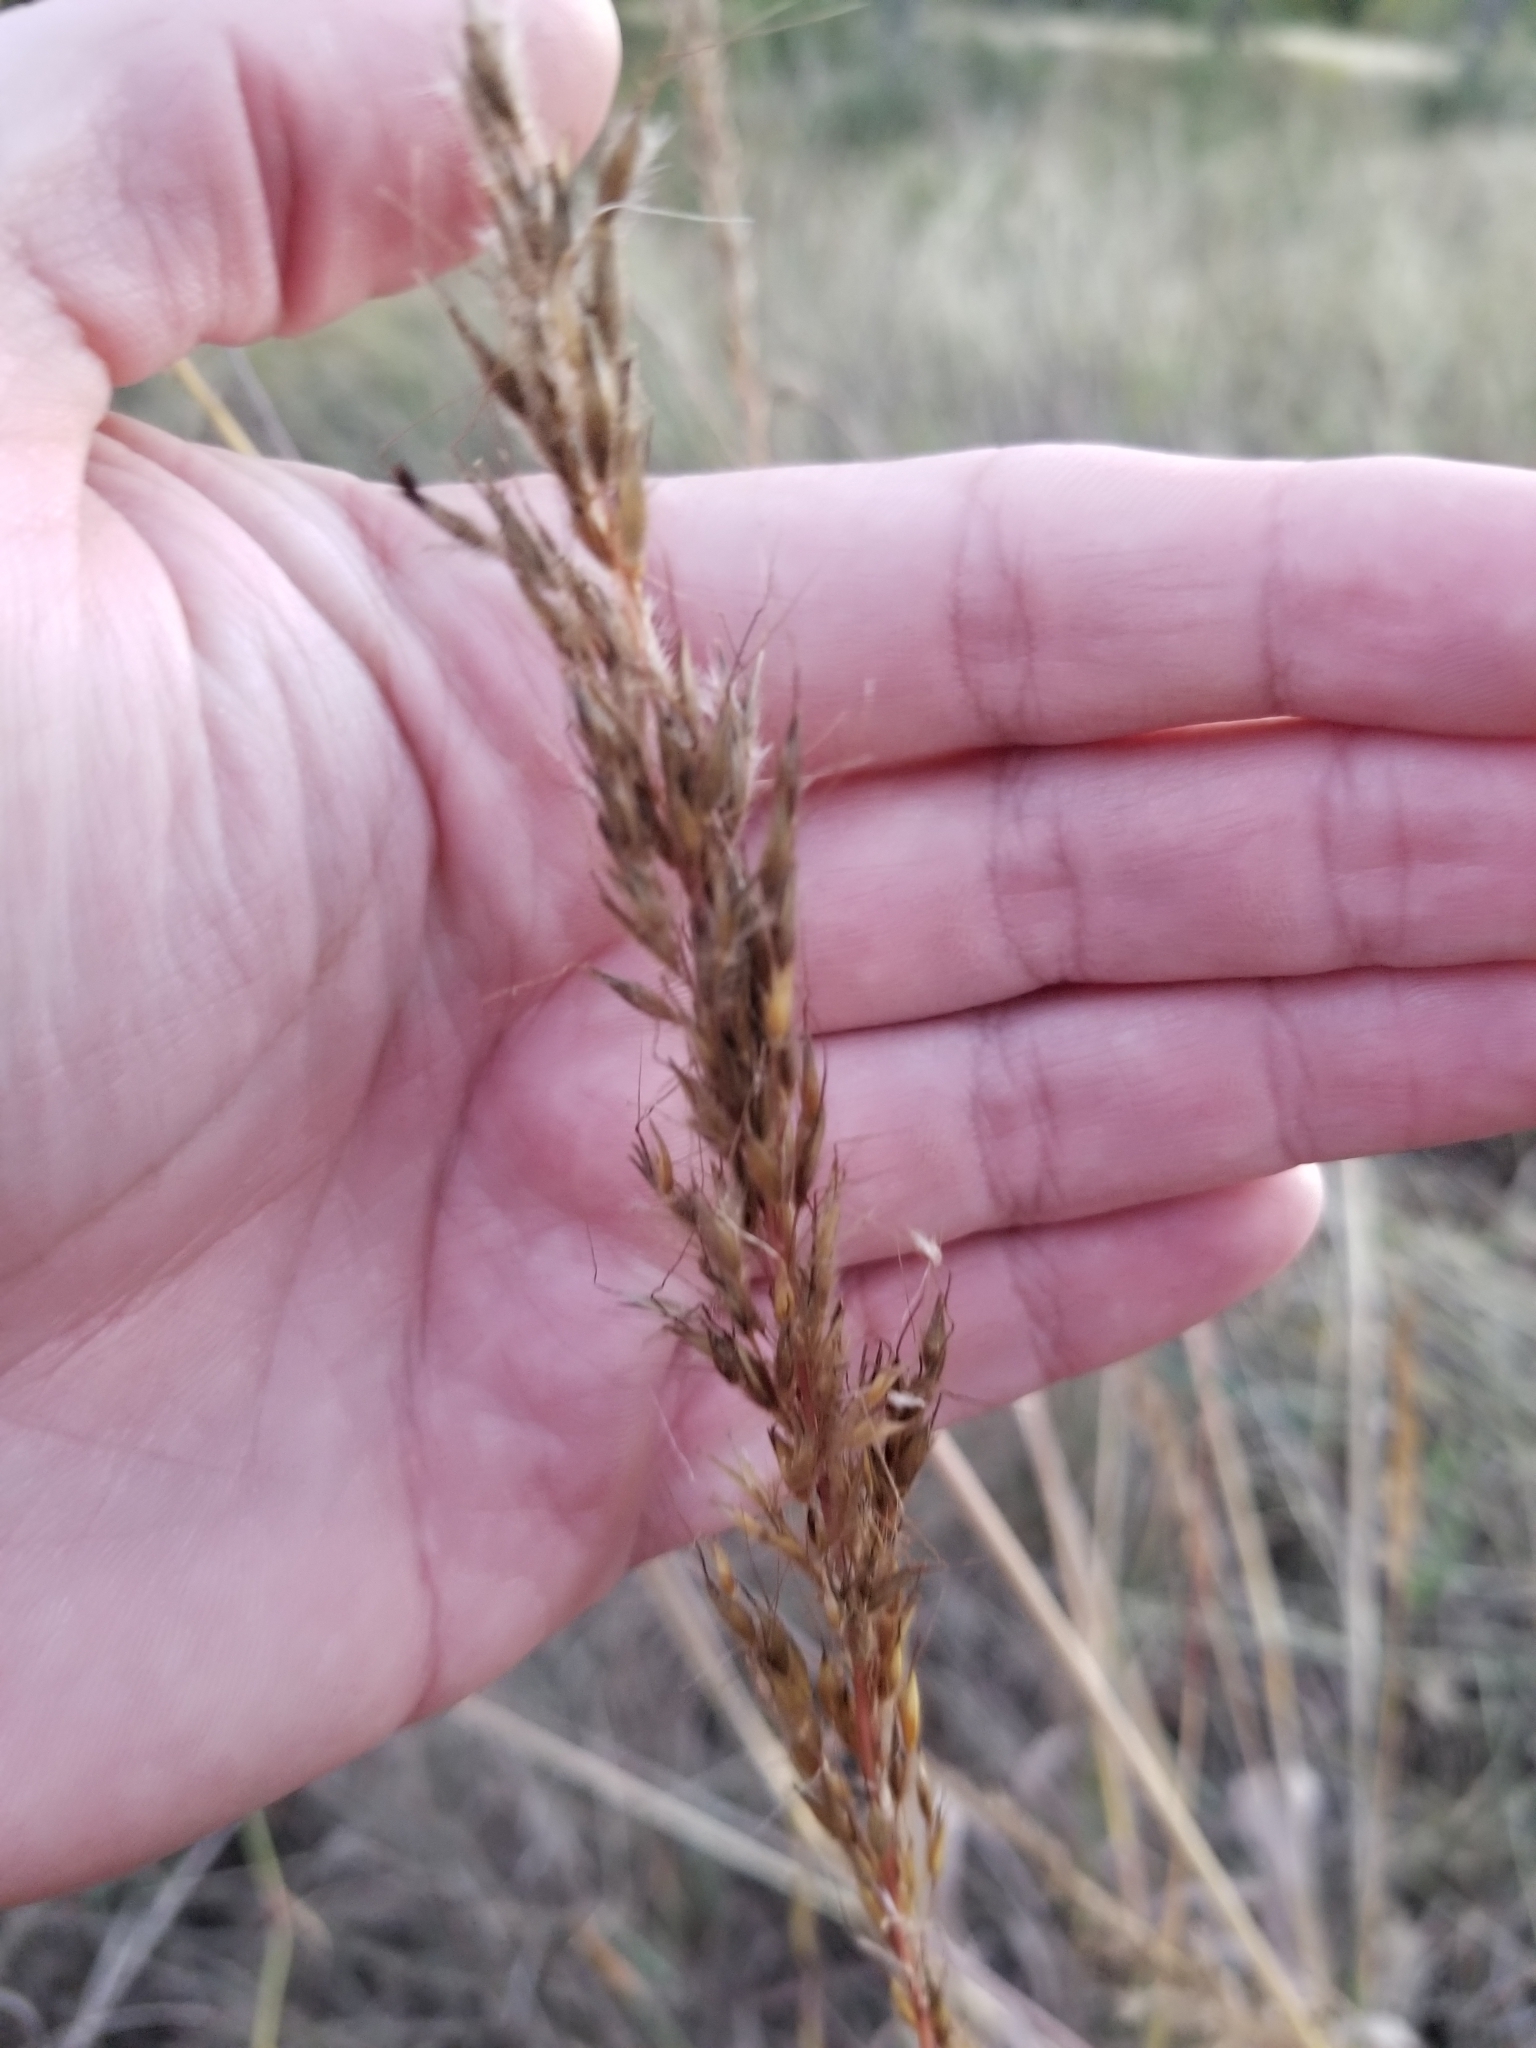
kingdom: Plantae
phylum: Tracheophyta
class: Liliopsida
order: Poales
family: Poaceae
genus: Sorghastrum
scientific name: Sorghastrum nutans
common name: Indian grass
